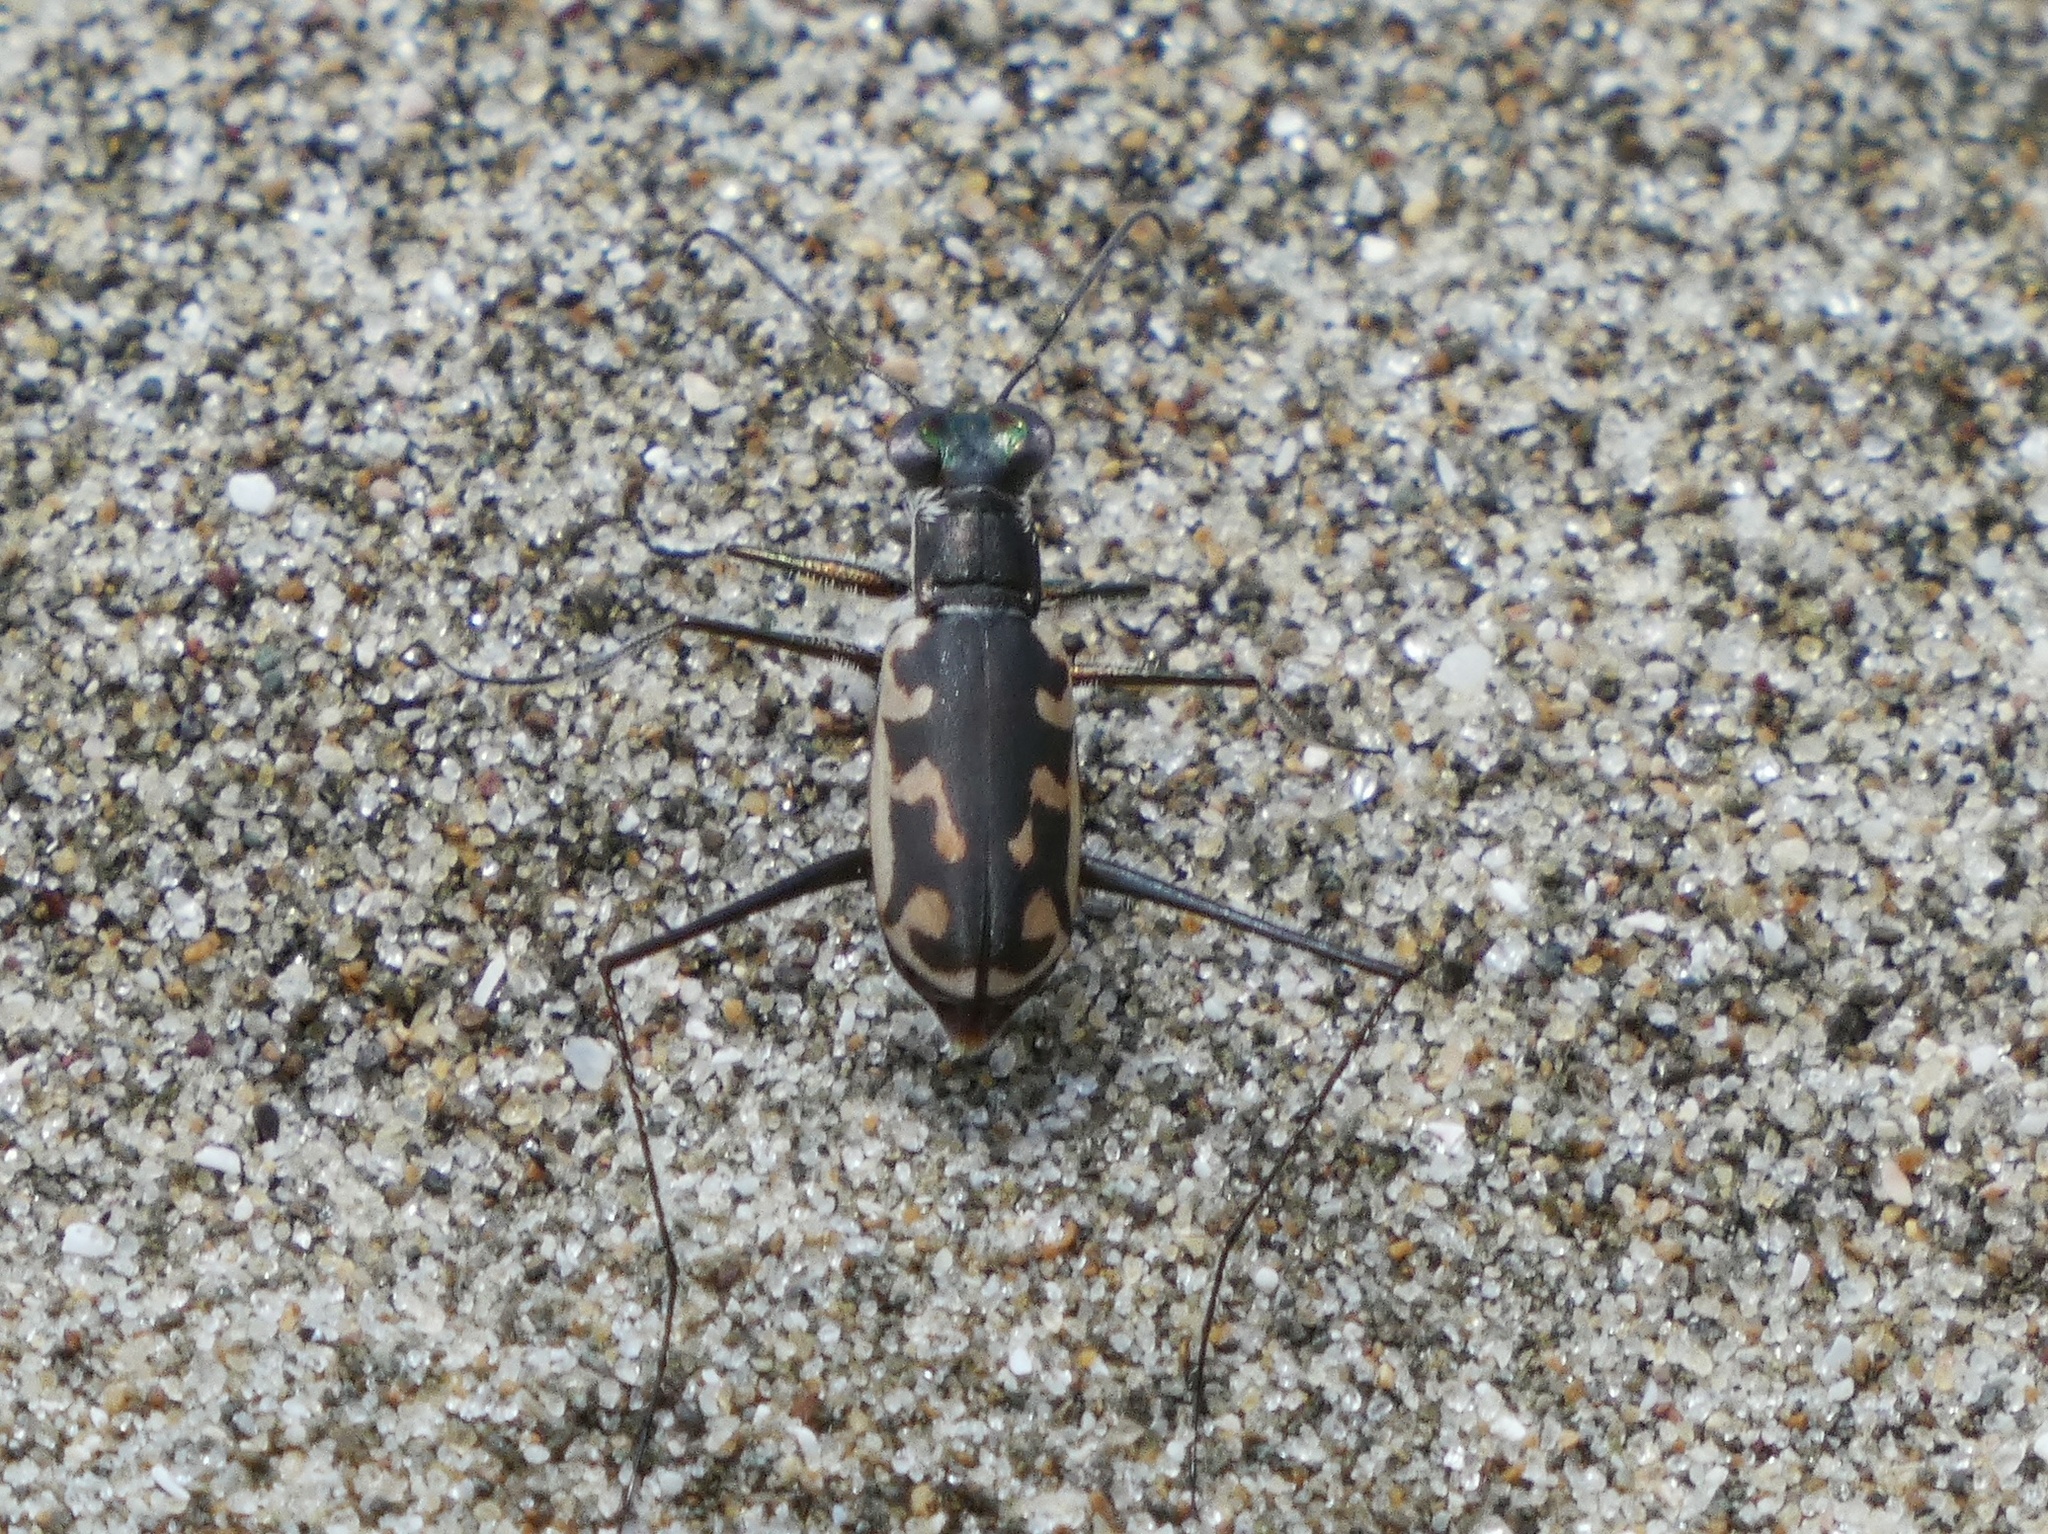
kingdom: Animalia
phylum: Arthropoda
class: Insecta
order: Coleoptera
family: Carabidae
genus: Opilidia
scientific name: Opilidia macrocnema
